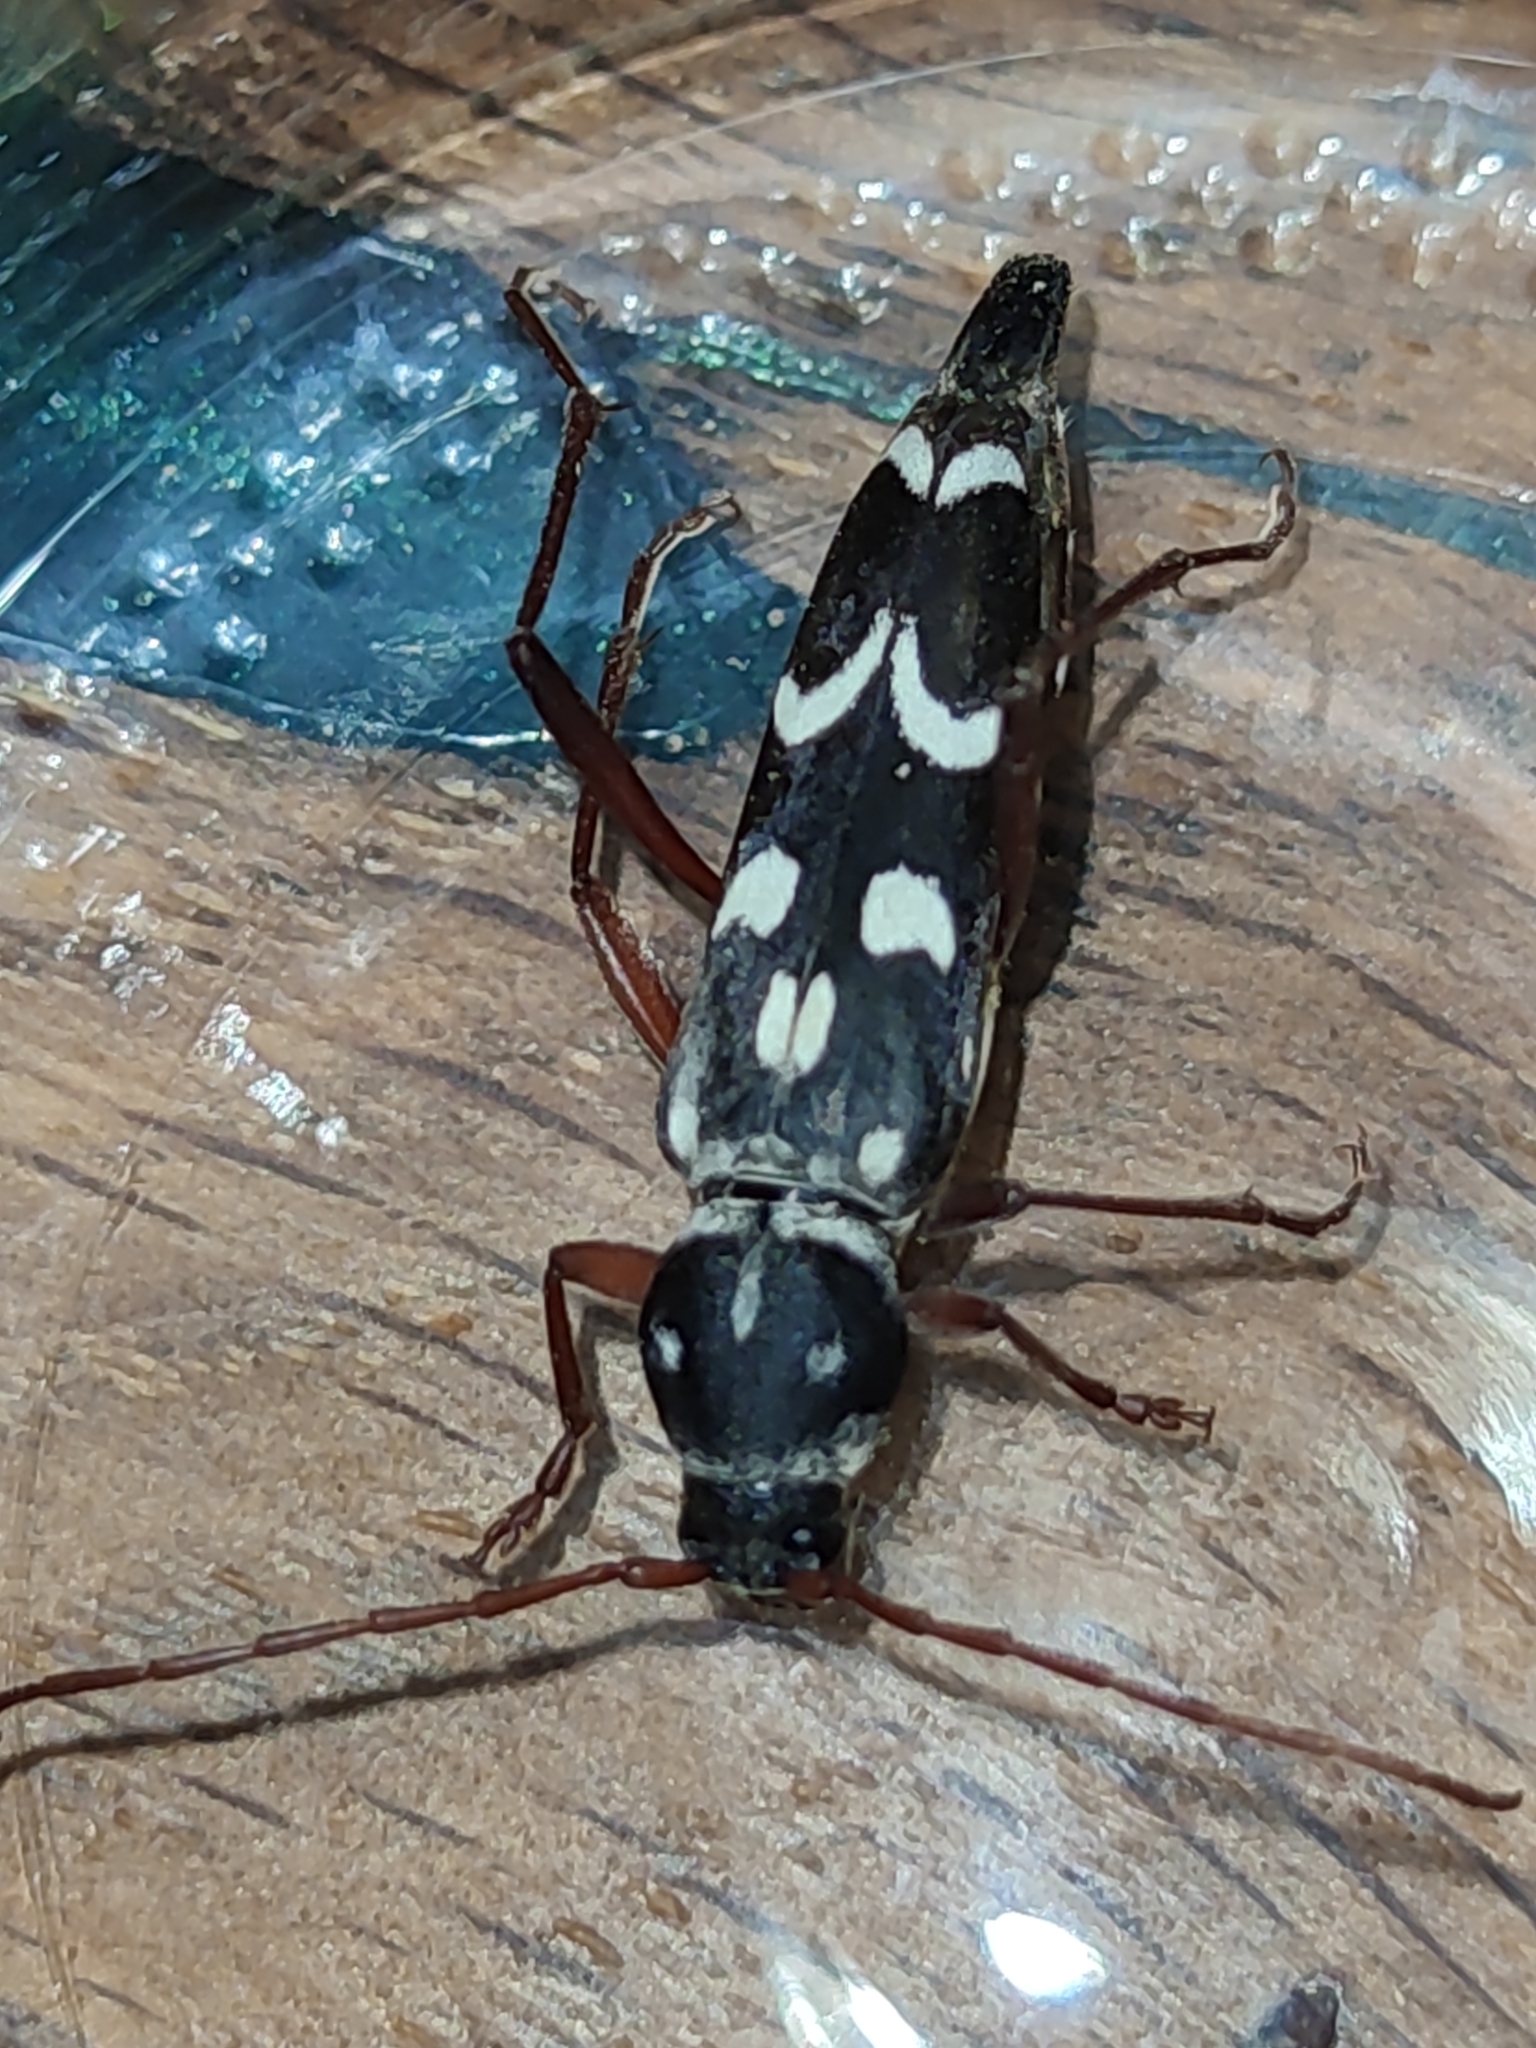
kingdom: Animalia
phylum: Arthropoda
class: Insecta
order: Coleoptera
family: Cerambycidae
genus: Isotomus
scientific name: Isotomus speciosus
